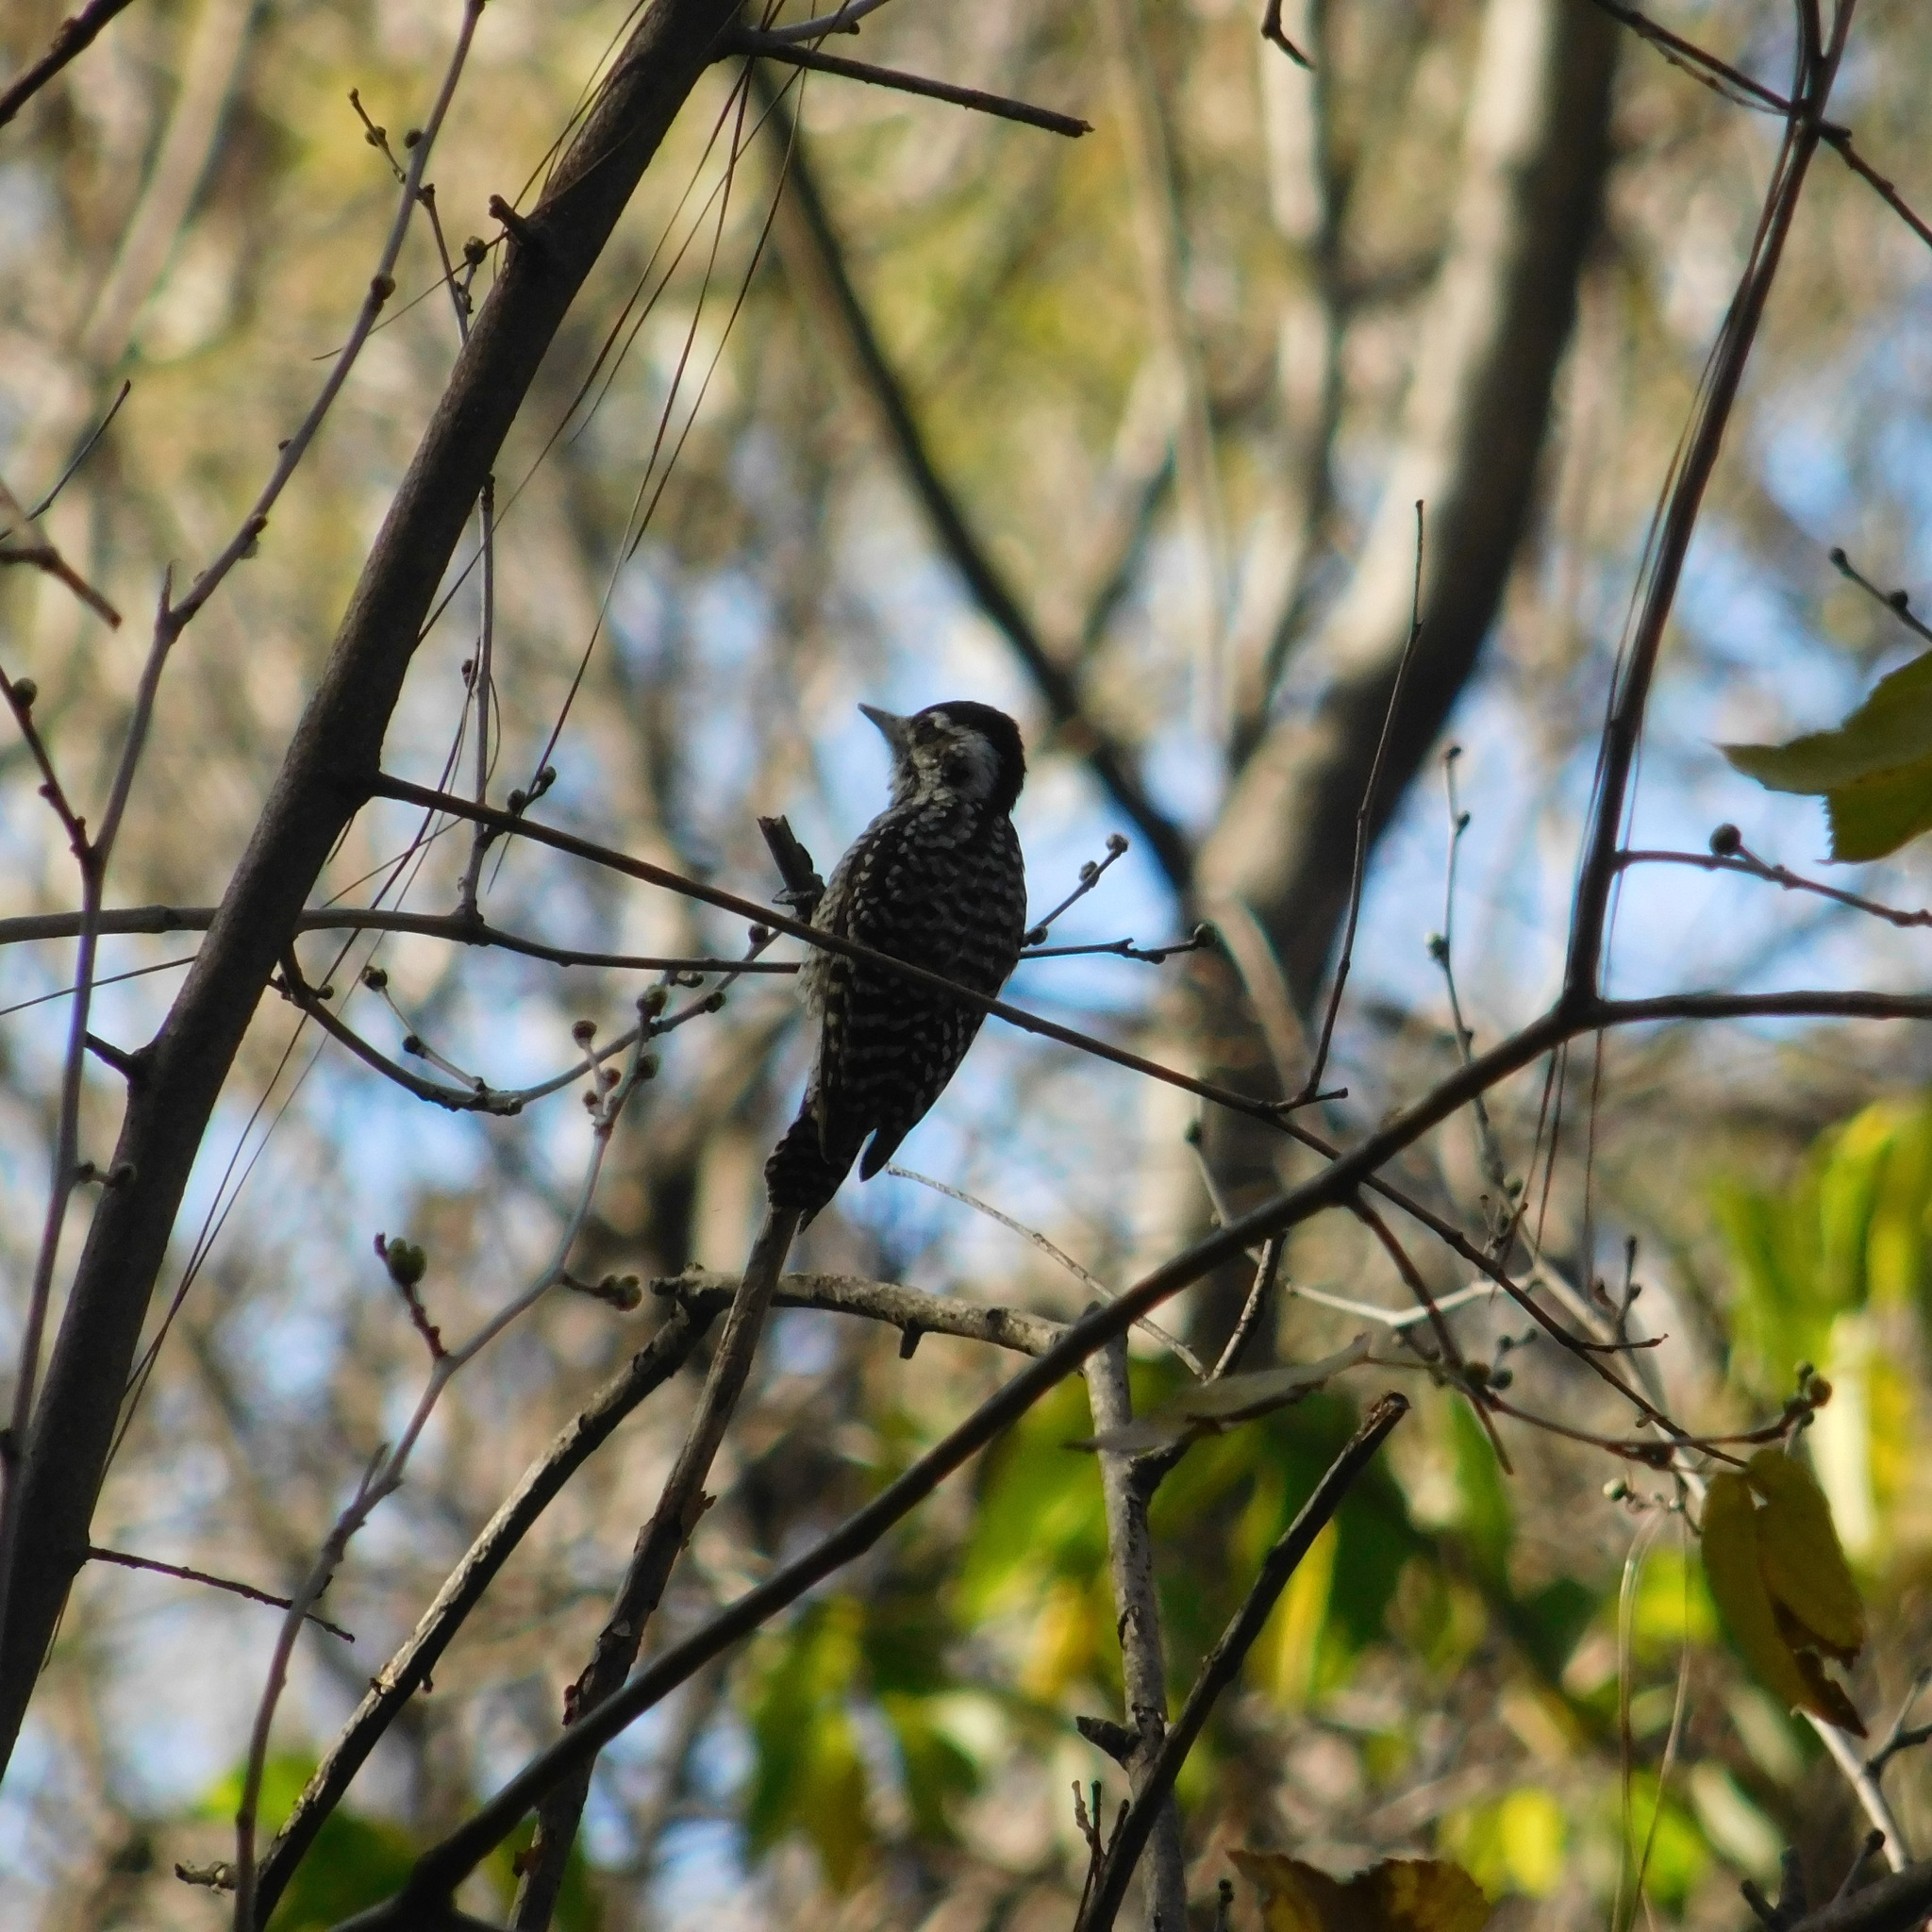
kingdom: Animalia
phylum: Chordata
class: Aves
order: Piciformes
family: Picidae
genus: Veniliornis
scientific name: Veniliornis mixtus
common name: Checkered woodpecker
